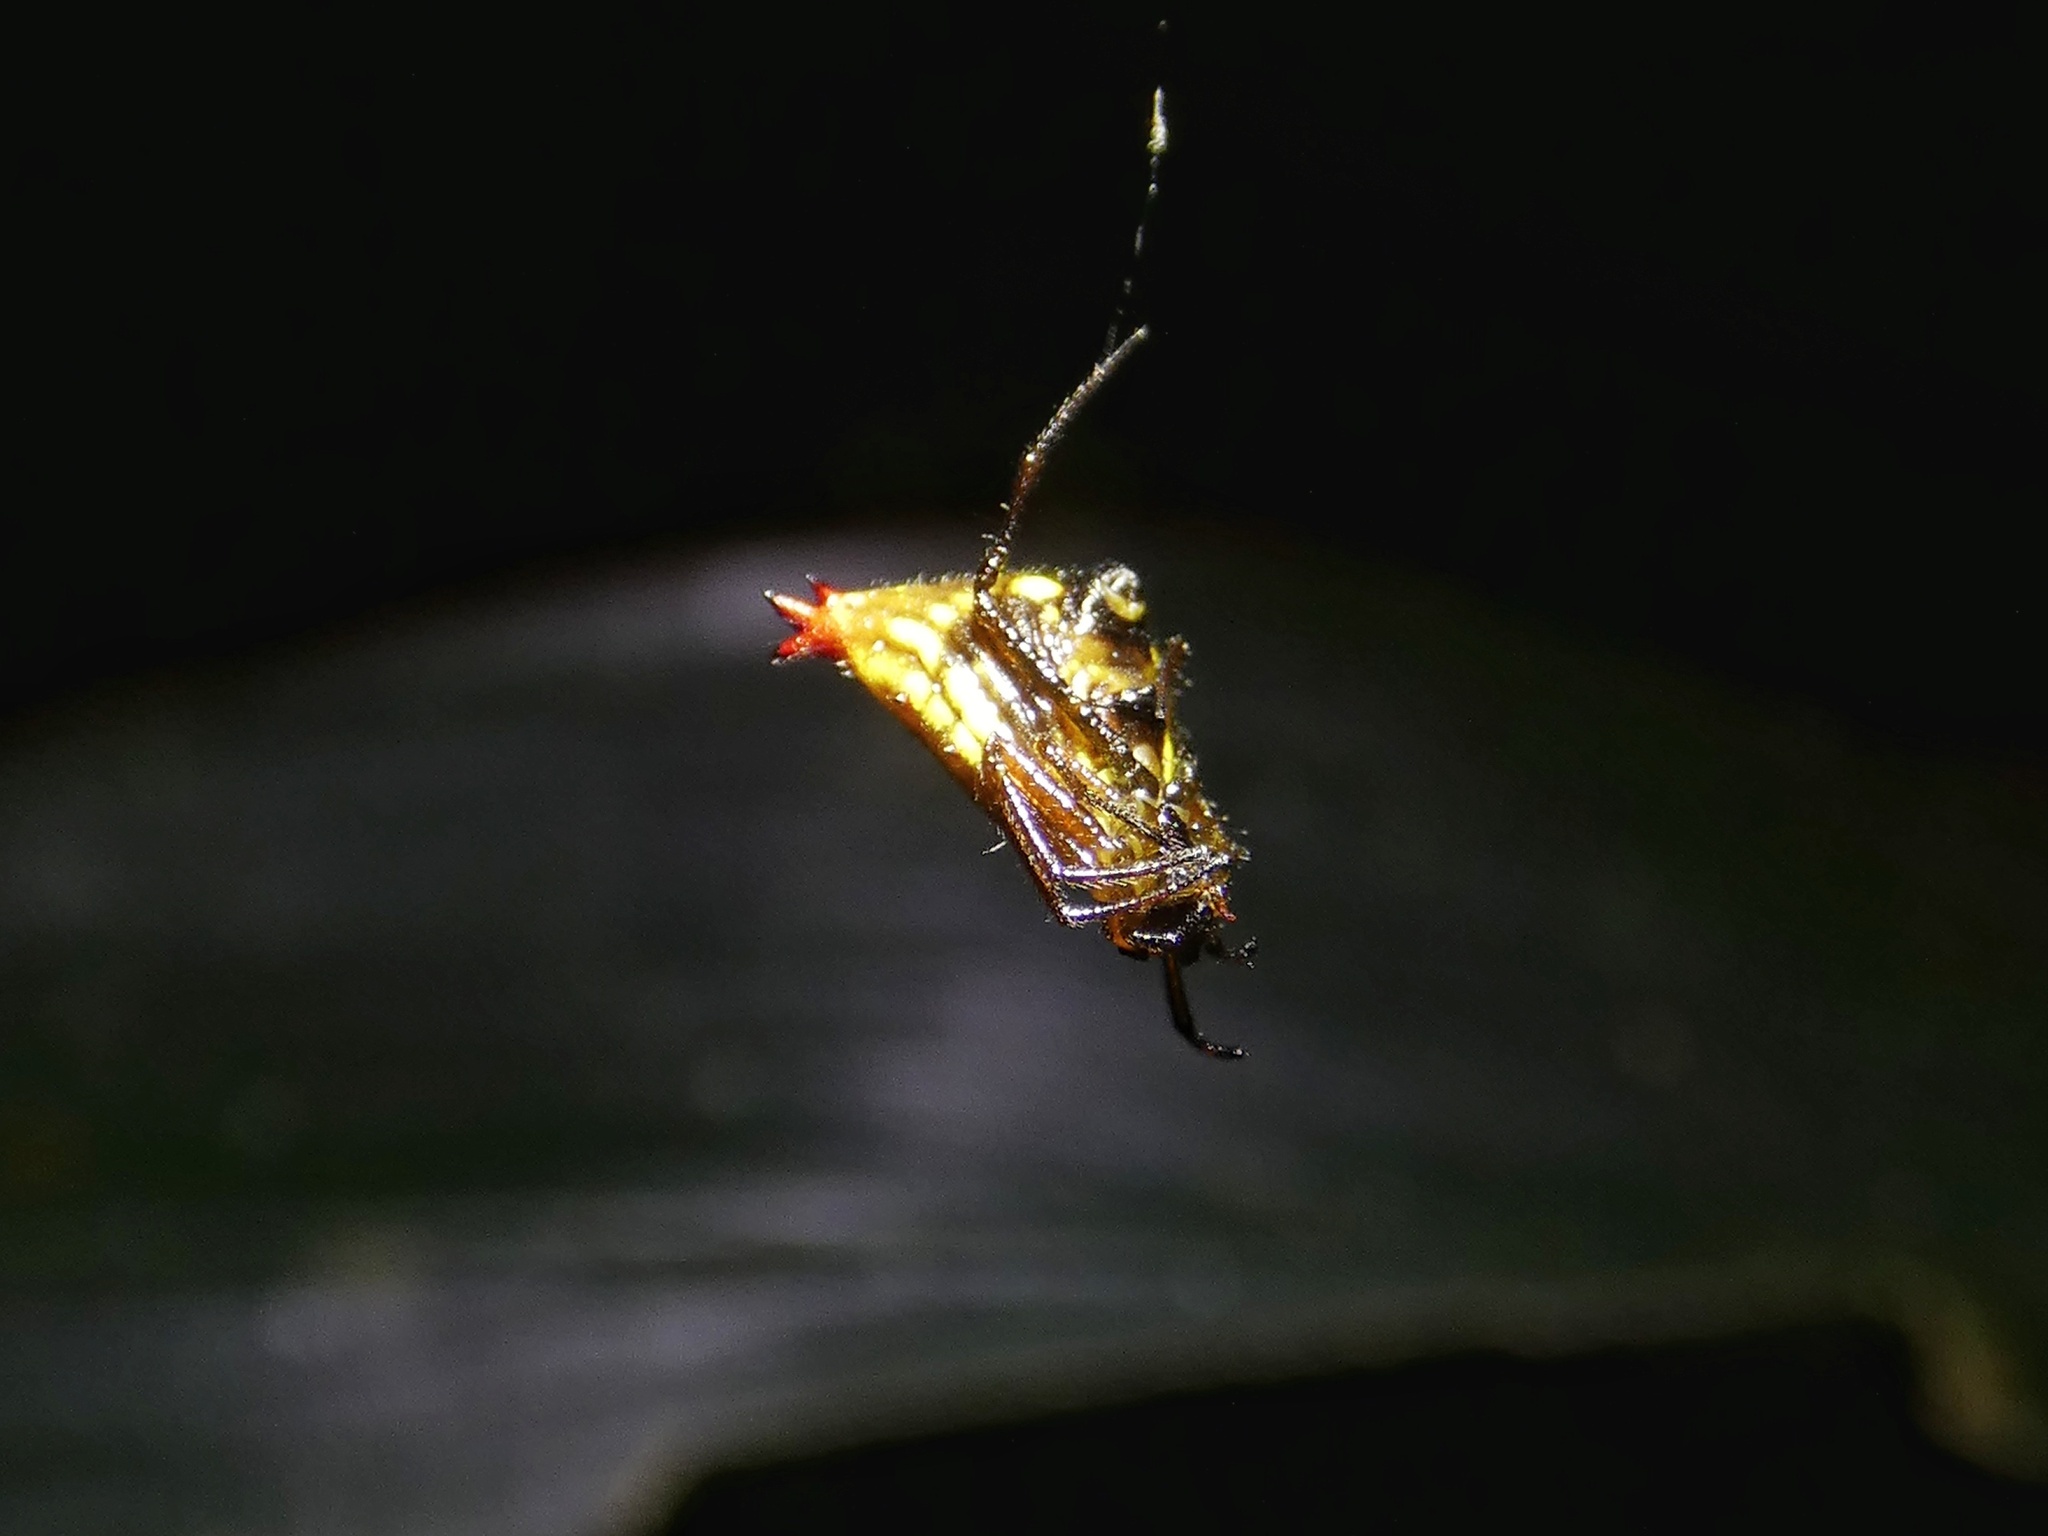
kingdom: Animalia
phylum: Arthropoda
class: Arachnida
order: Araneae
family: Araneidae
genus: Micrathena
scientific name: Micrathena duodecimspinosa
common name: Orb weavers
